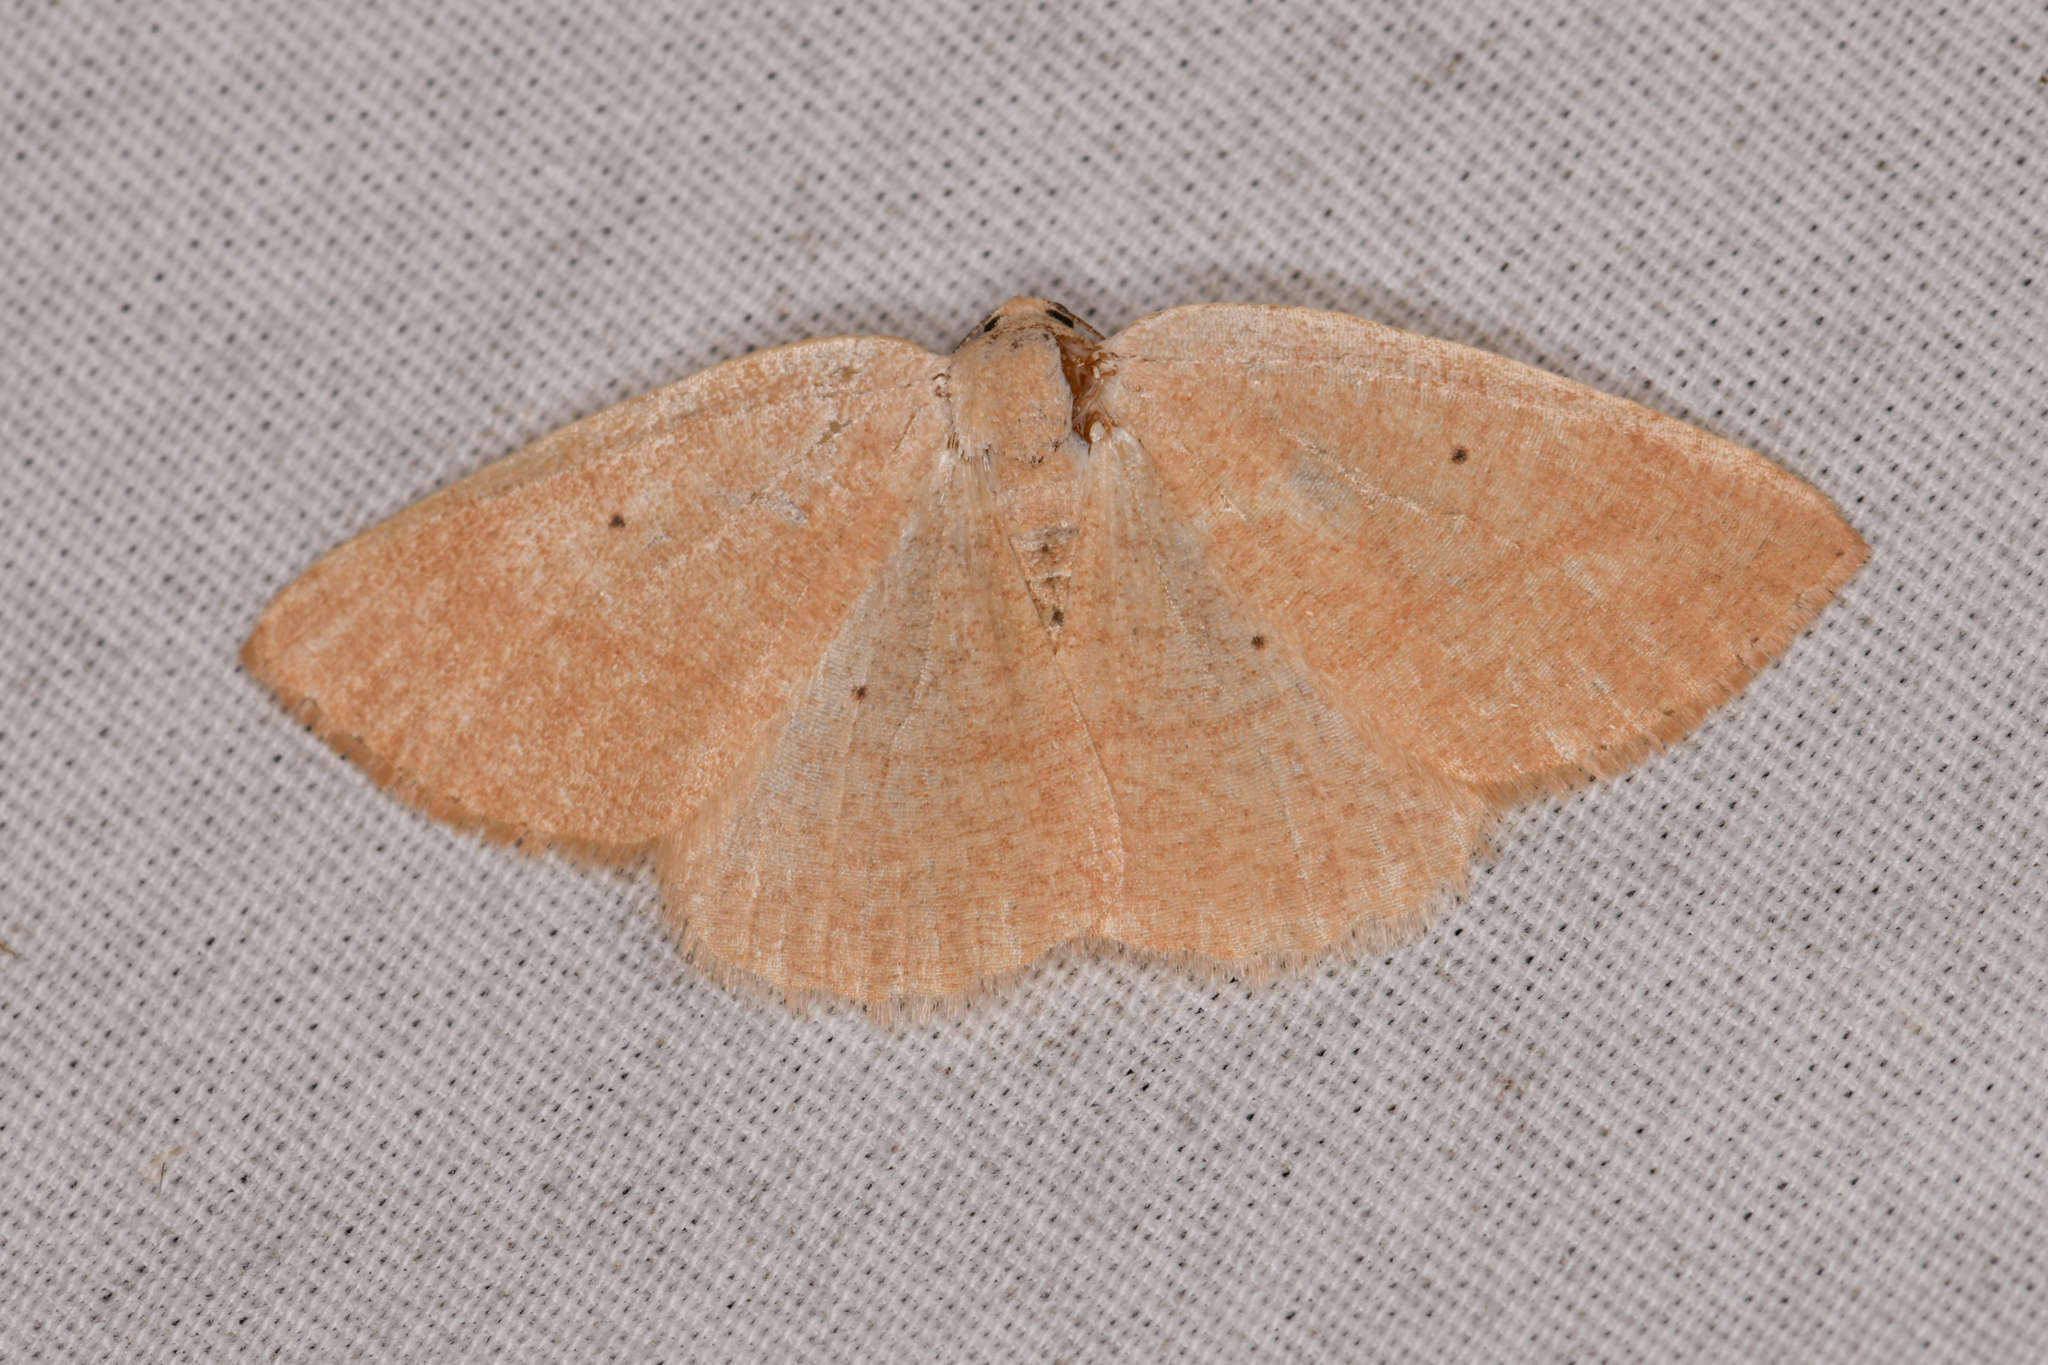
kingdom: Animalia
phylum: Arthropoda
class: Insecta
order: Lepidoptera
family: Geometridae
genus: Eudrepanulatrix
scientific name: Eudrepanulatrix rectifascia
